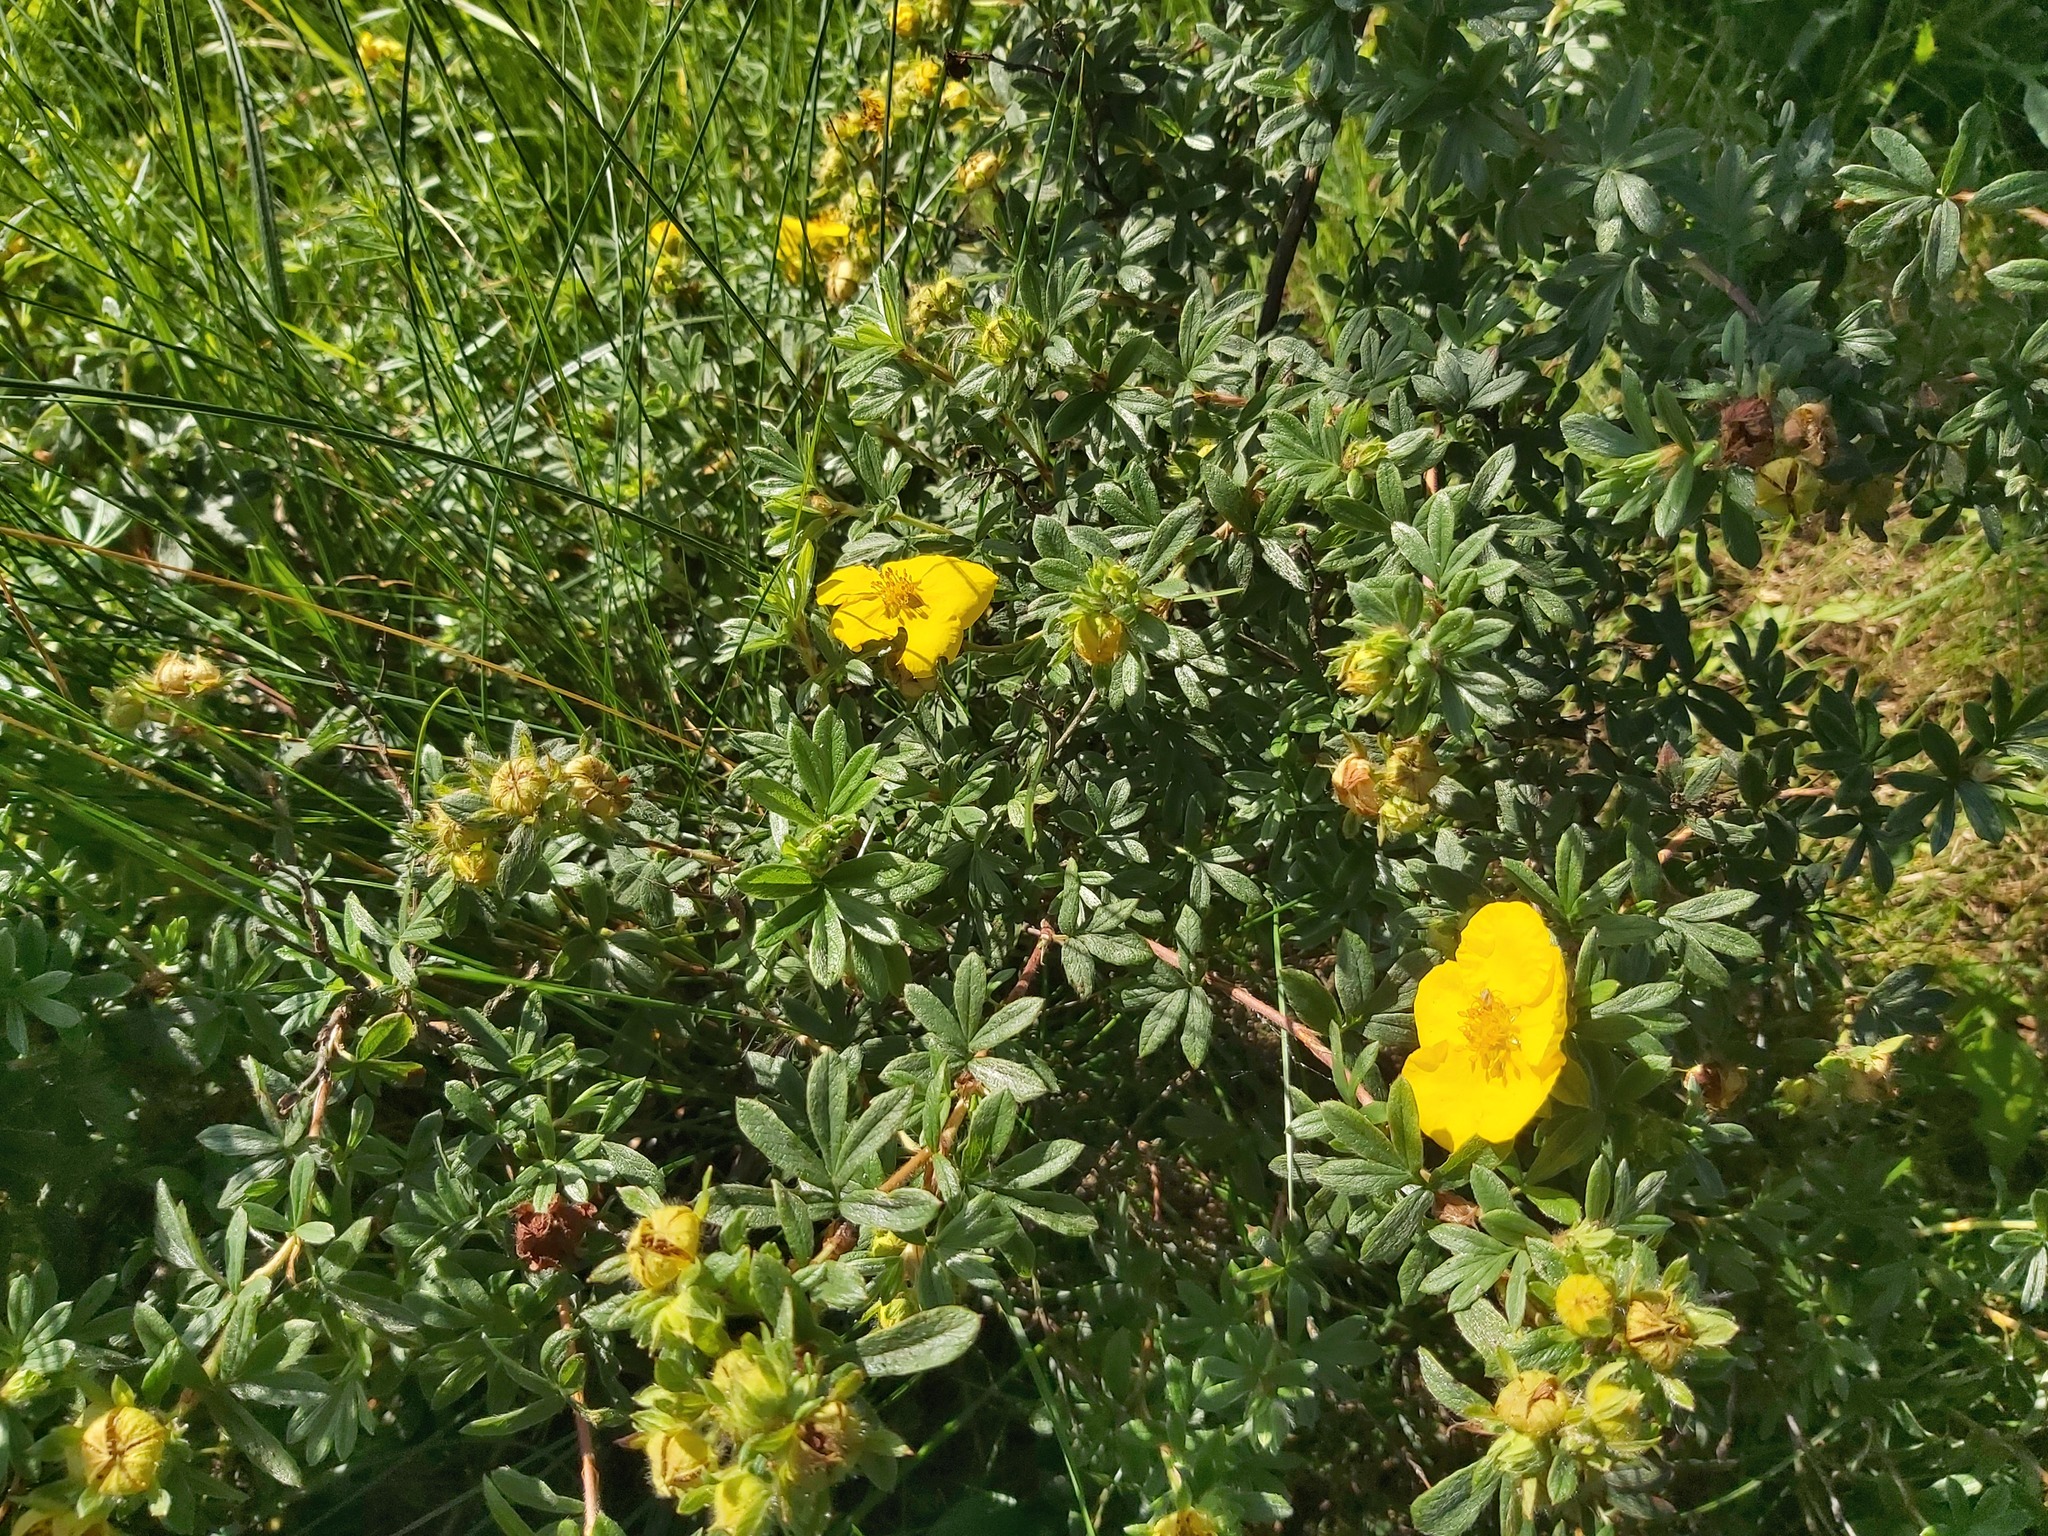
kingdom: Plantae
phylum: Tracheophyta
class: Magnoliopsida
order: Rosales
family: Rosaceae
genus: Dasiphora
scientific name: Dasiphora fruticosa
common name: Shrubby cinquefoil
